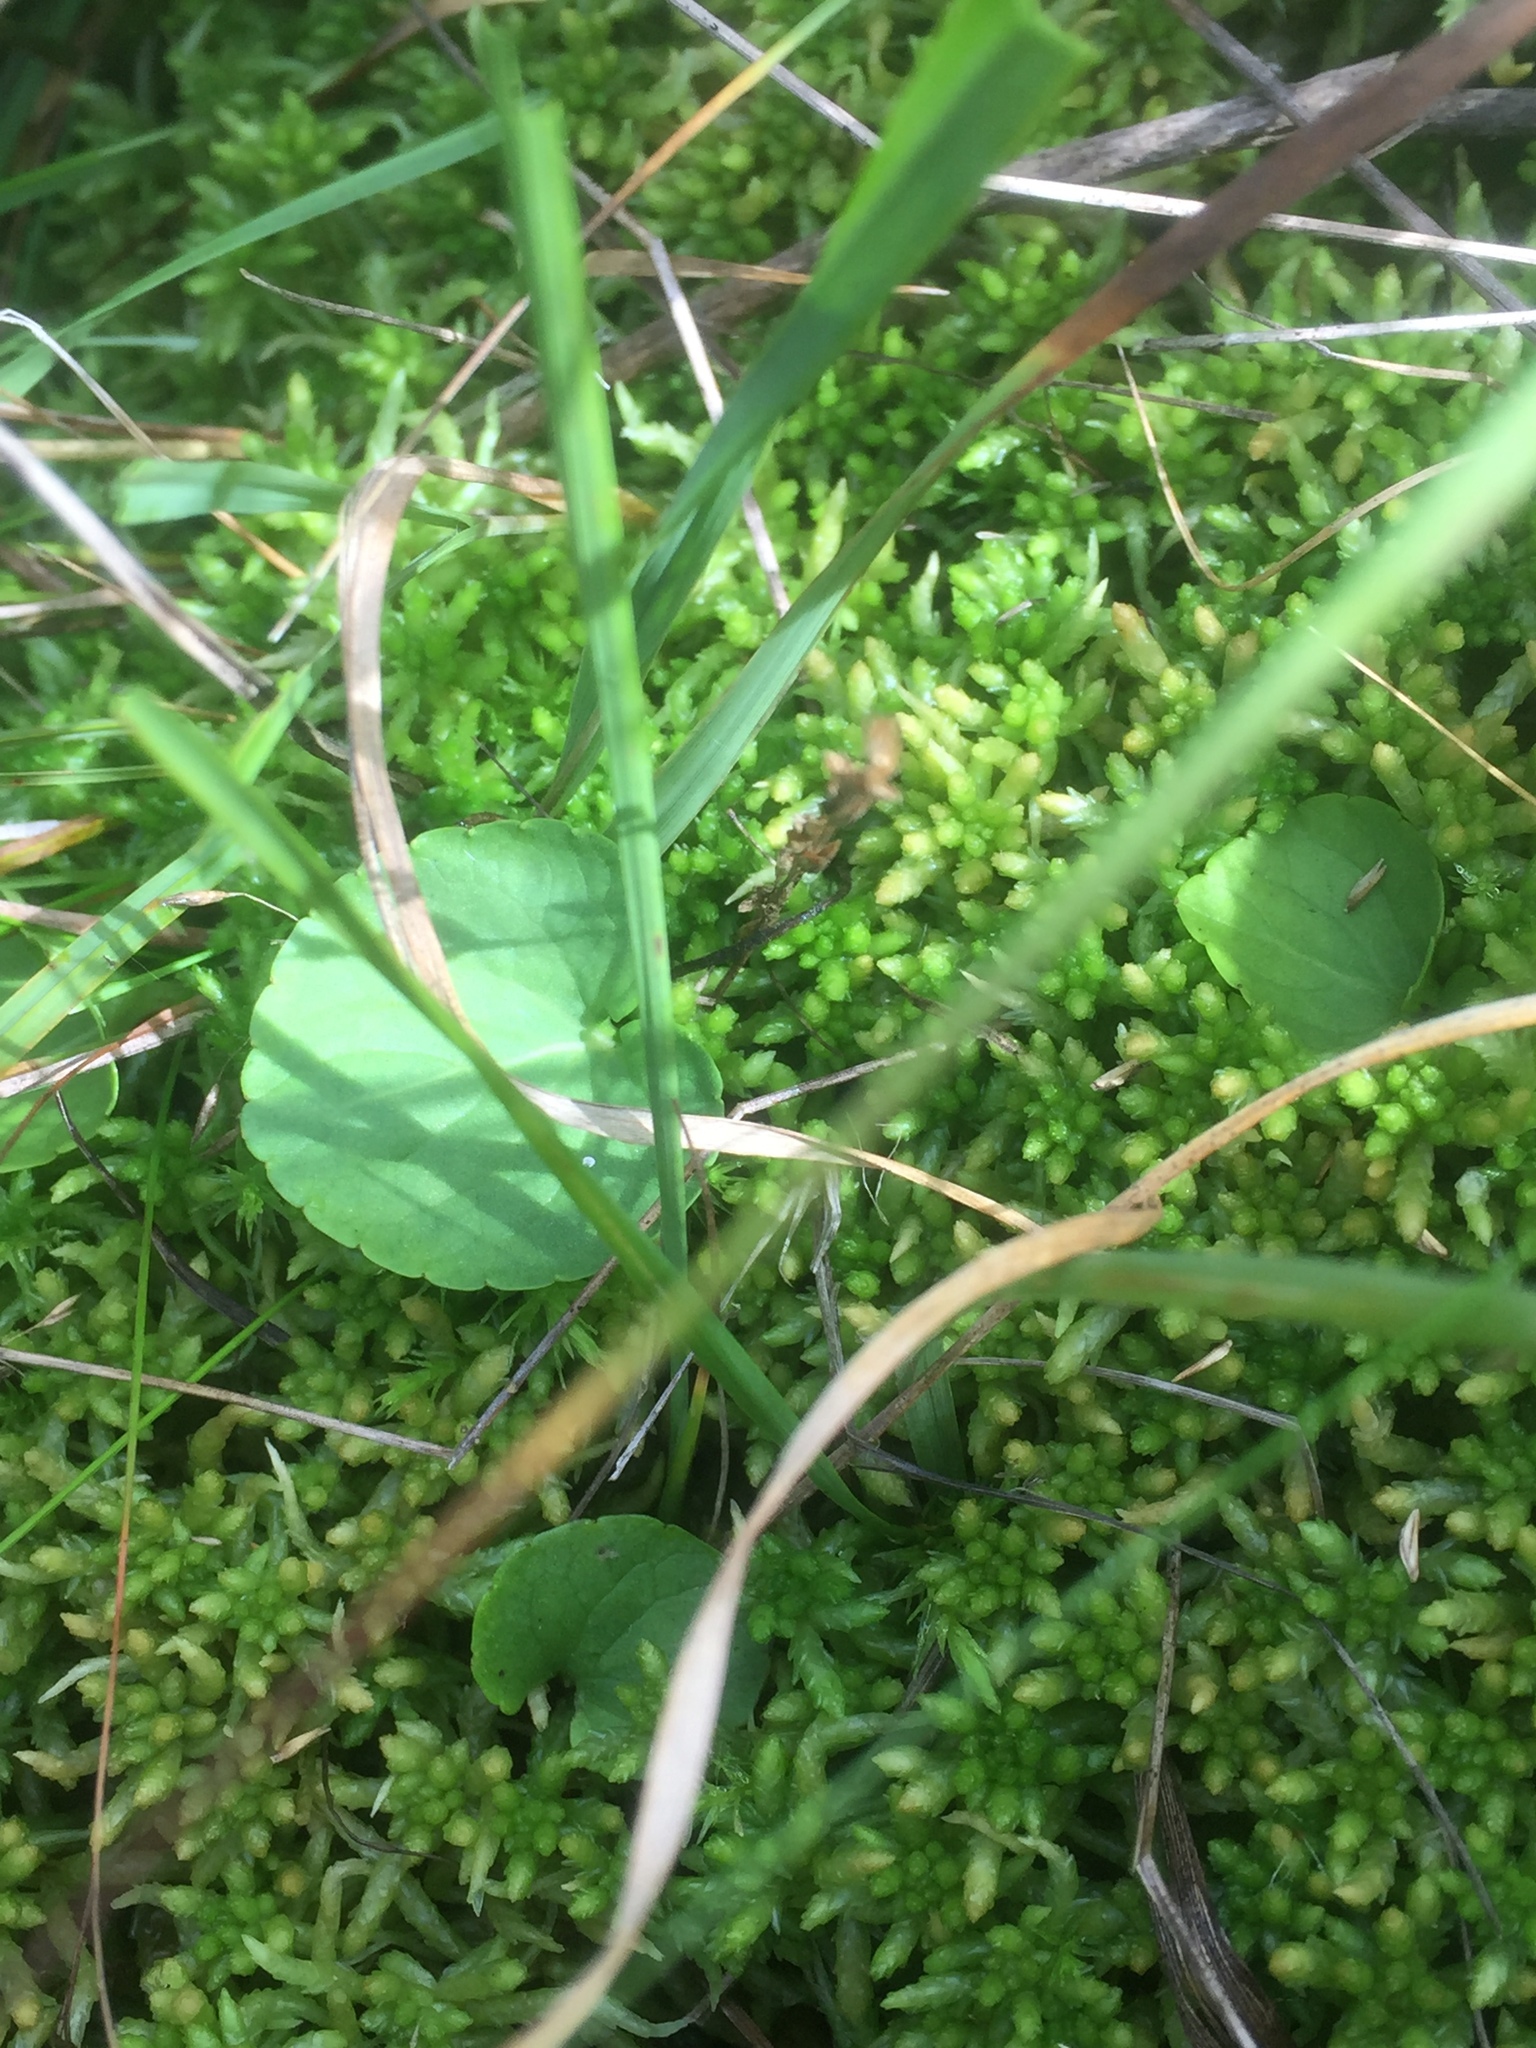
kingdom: Plantae
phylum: Tracheophyta
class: Magnoliopsida
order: Malpighiales
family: Violaceae
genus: Viola
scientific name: Viola palustris
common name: Marsh violet
